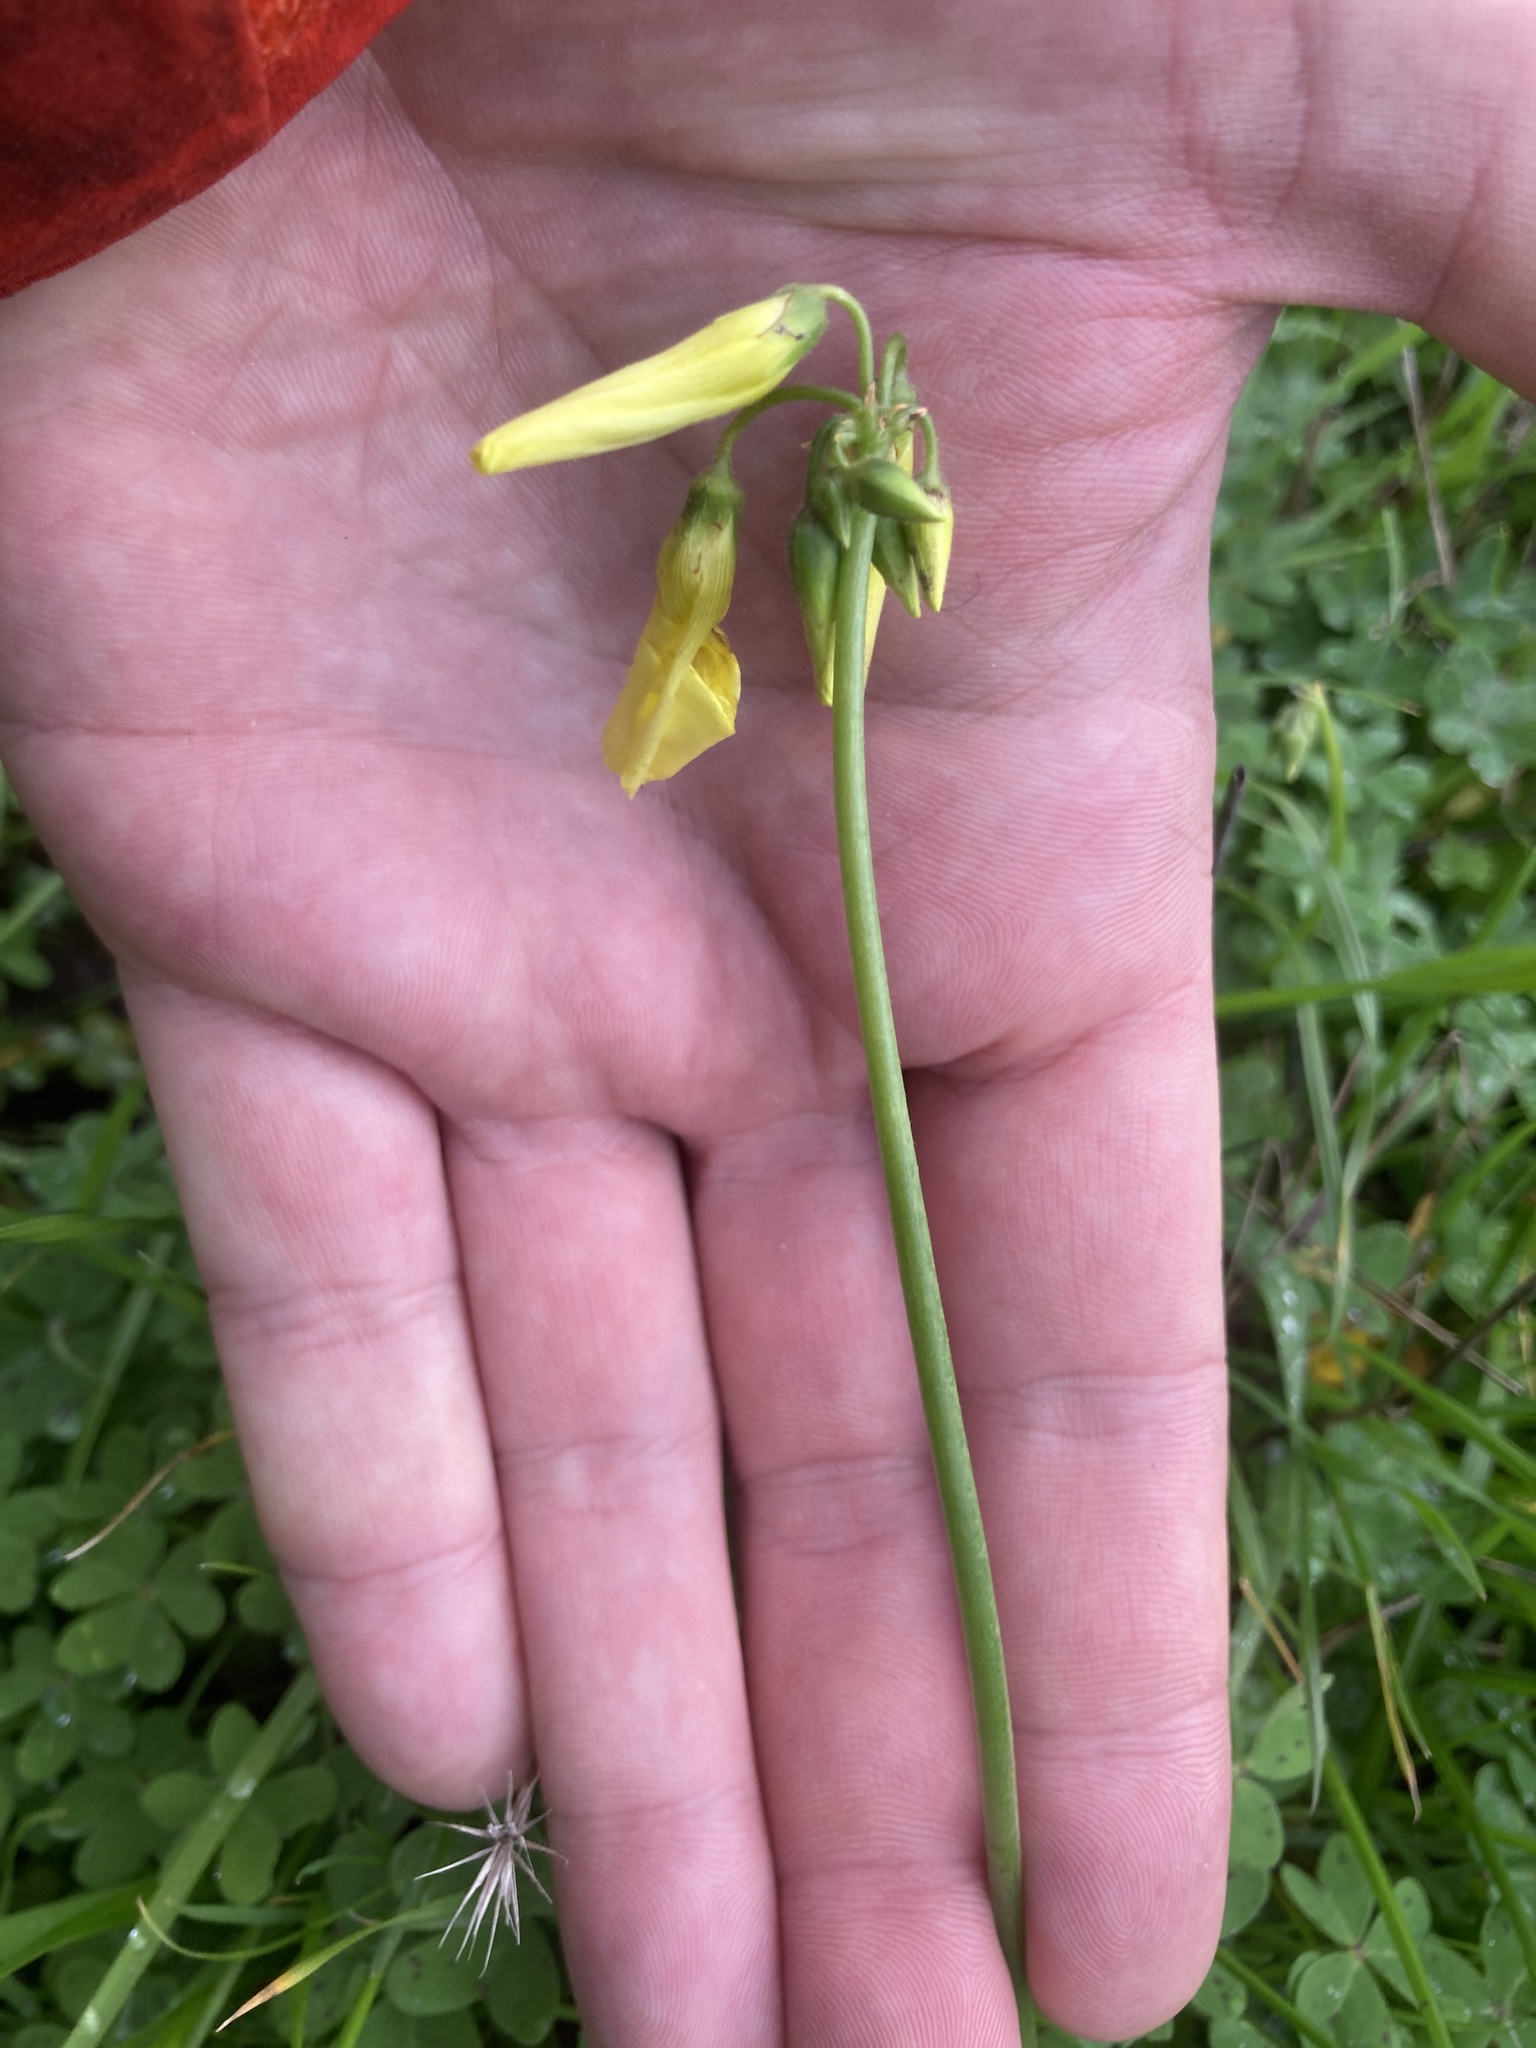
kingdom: Plantae
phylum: Tracheophyta
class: Magnoliopsida
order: Oxalidales
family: Oxalidaceae
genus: Oxalis
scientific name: Oxalis pes-caprae
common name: Bermuda-buttercup
